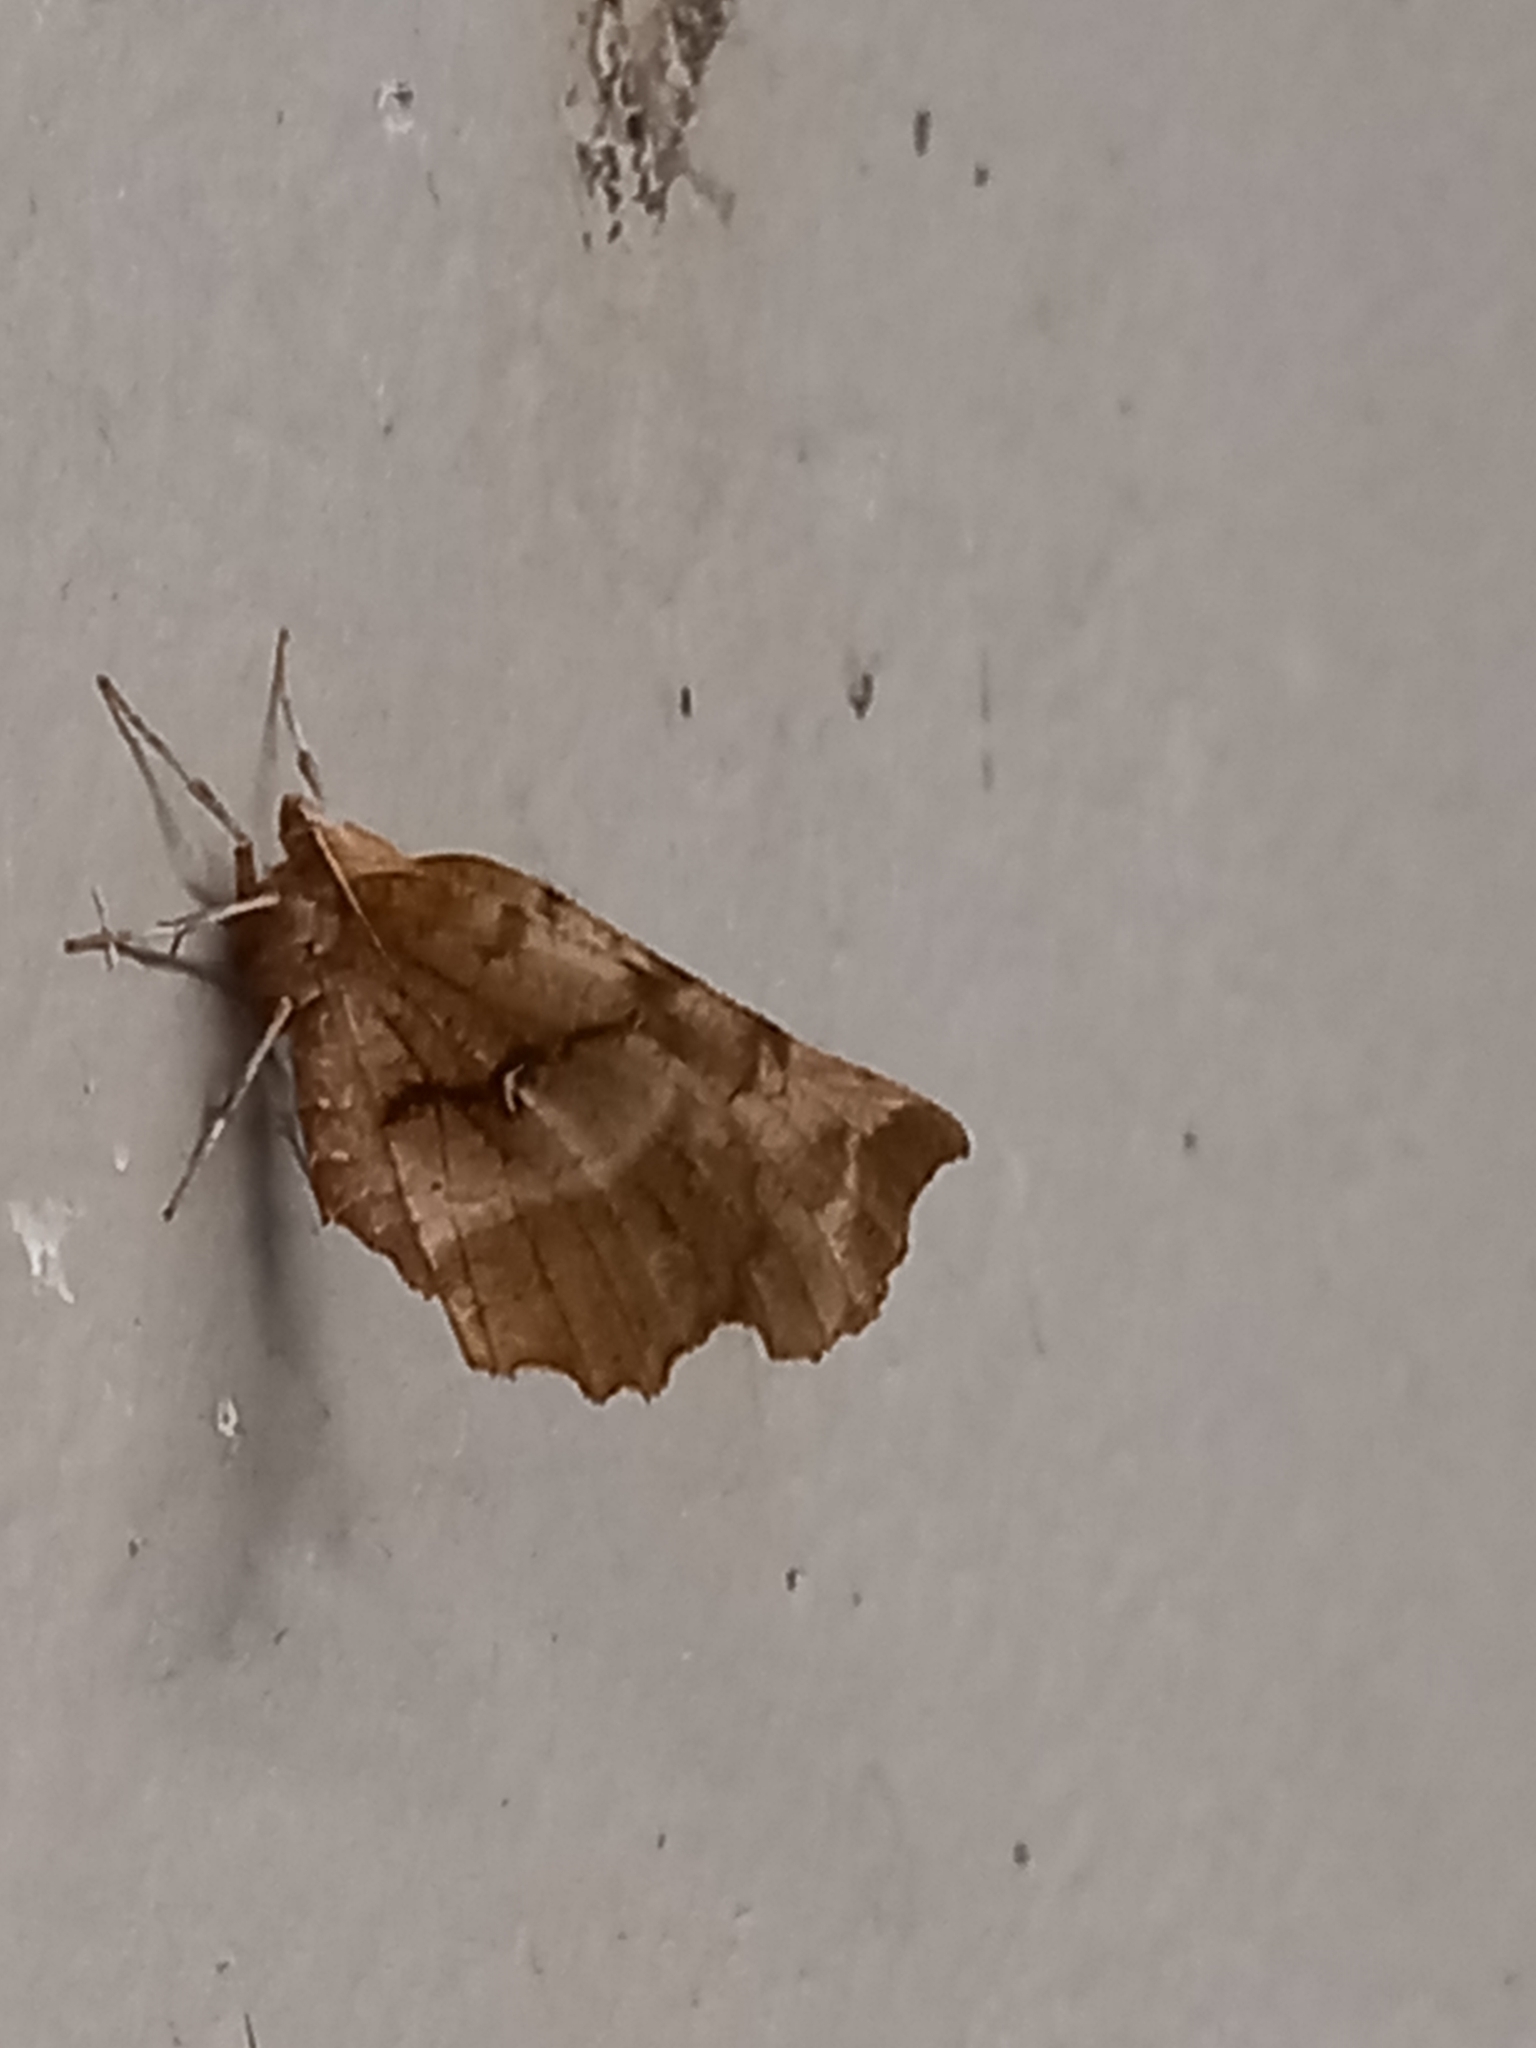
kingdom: Animalia
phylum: Arthropoda
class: Insecta
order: Lepidoptera
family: Geometridae
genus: Selenia
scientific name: Selenia dentaria
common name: Early thorn
